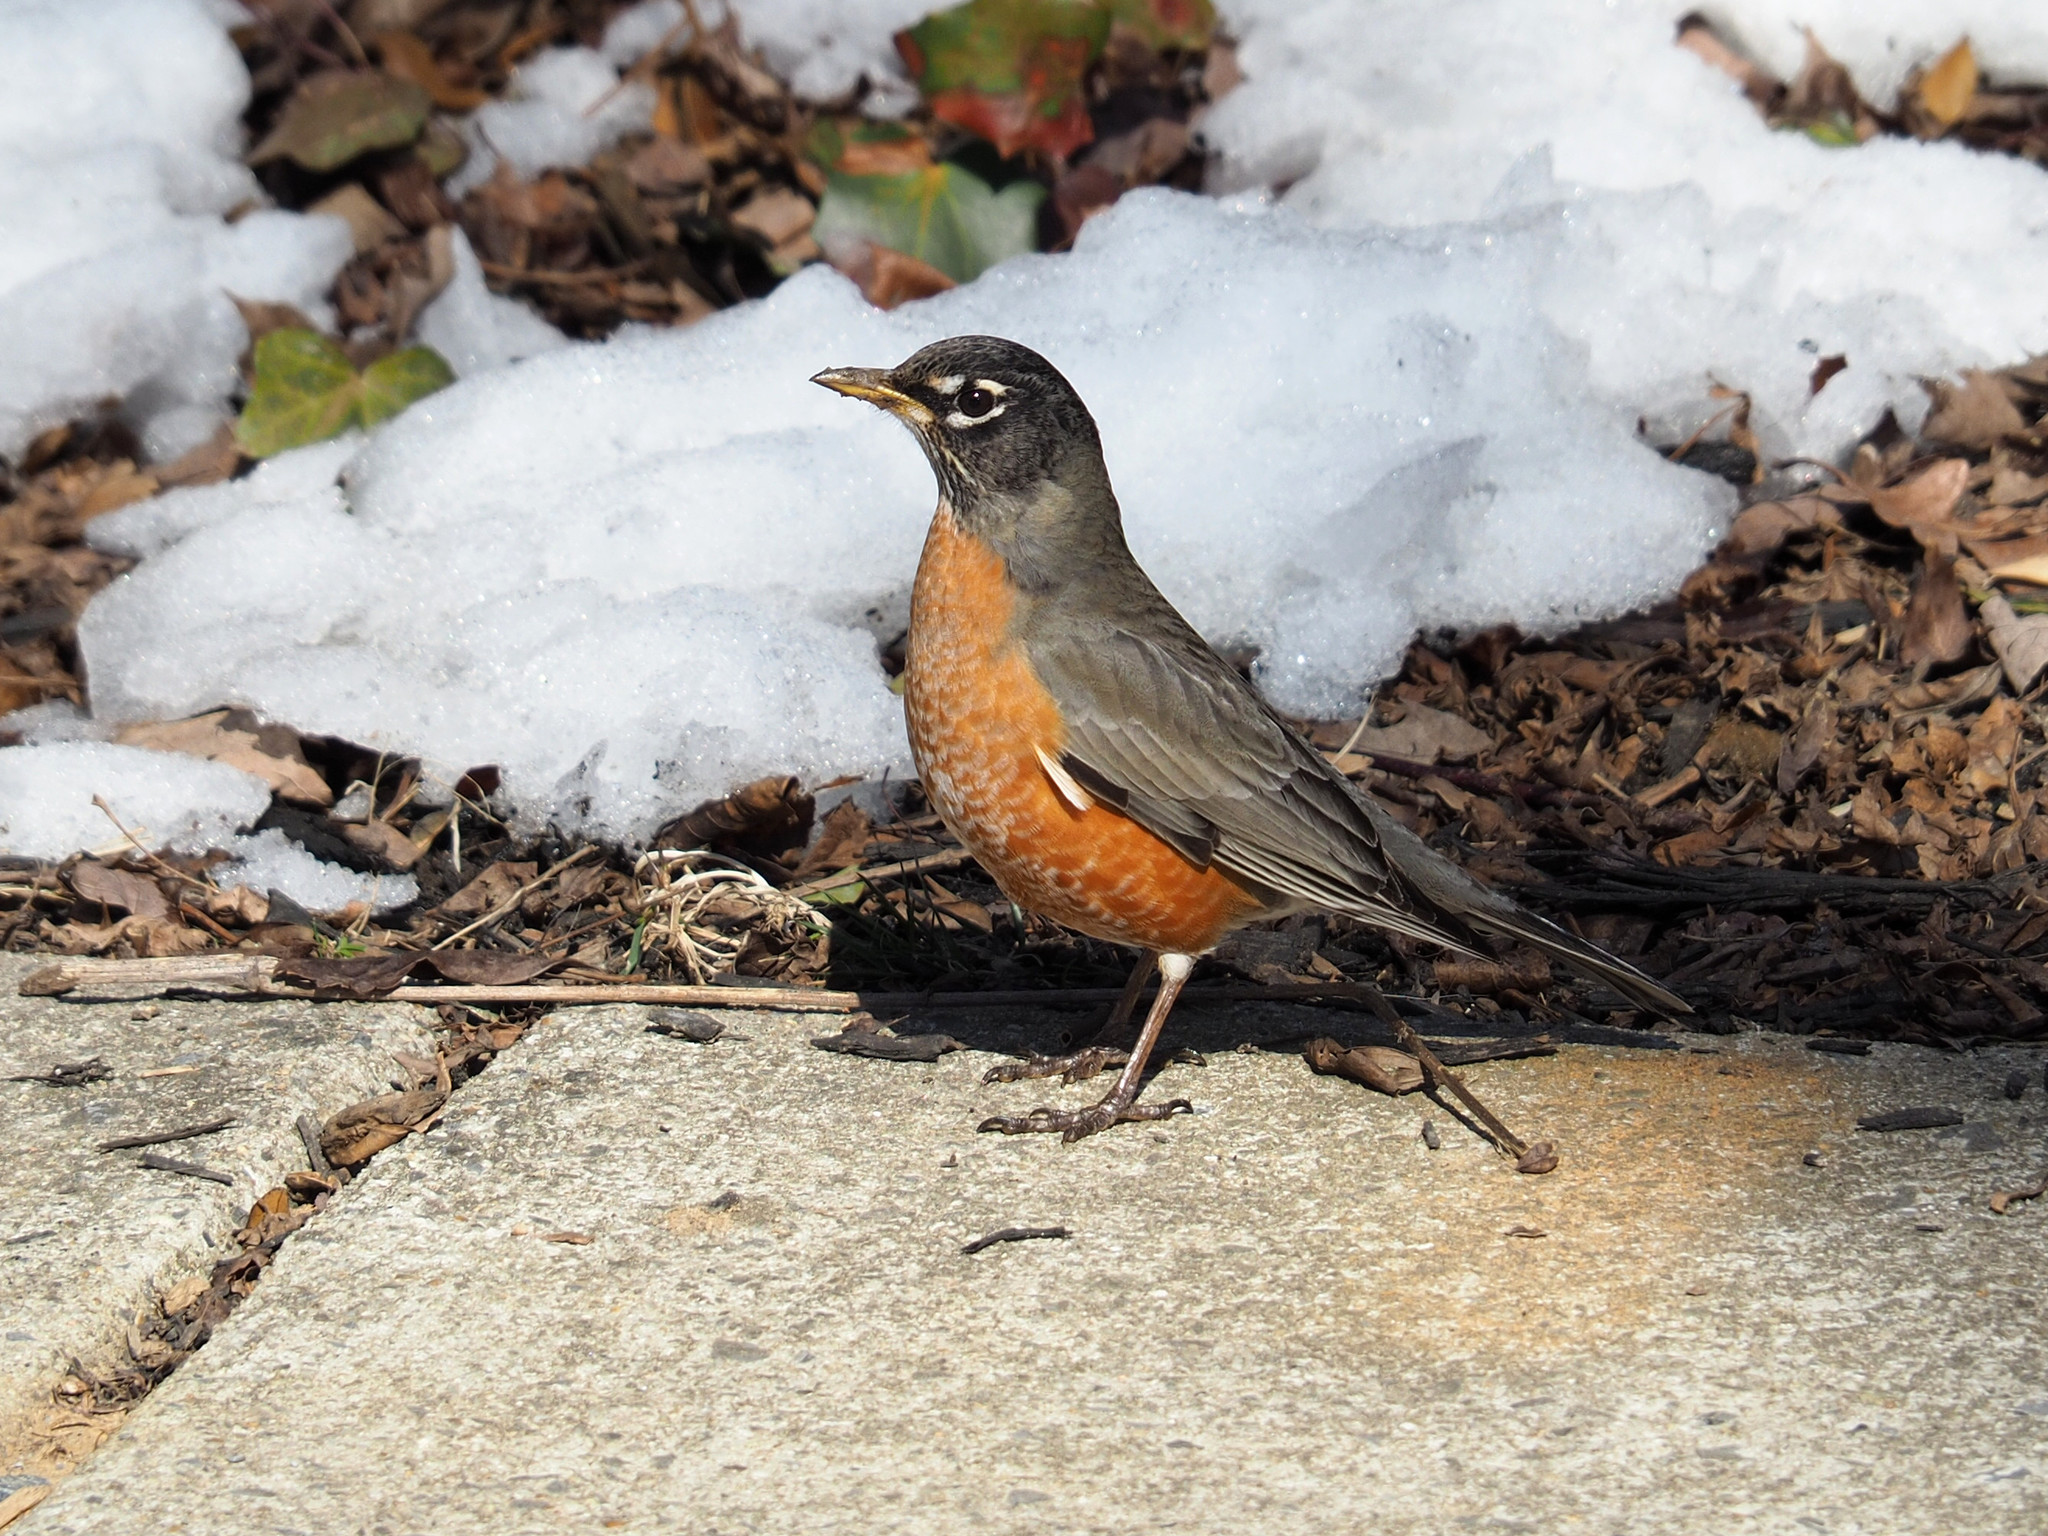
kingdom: Animalia
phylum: Chordata
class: Aves
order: Passeriformes
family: Turdidae
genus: Turdus
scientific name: Turdus migratorius
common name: American robin
